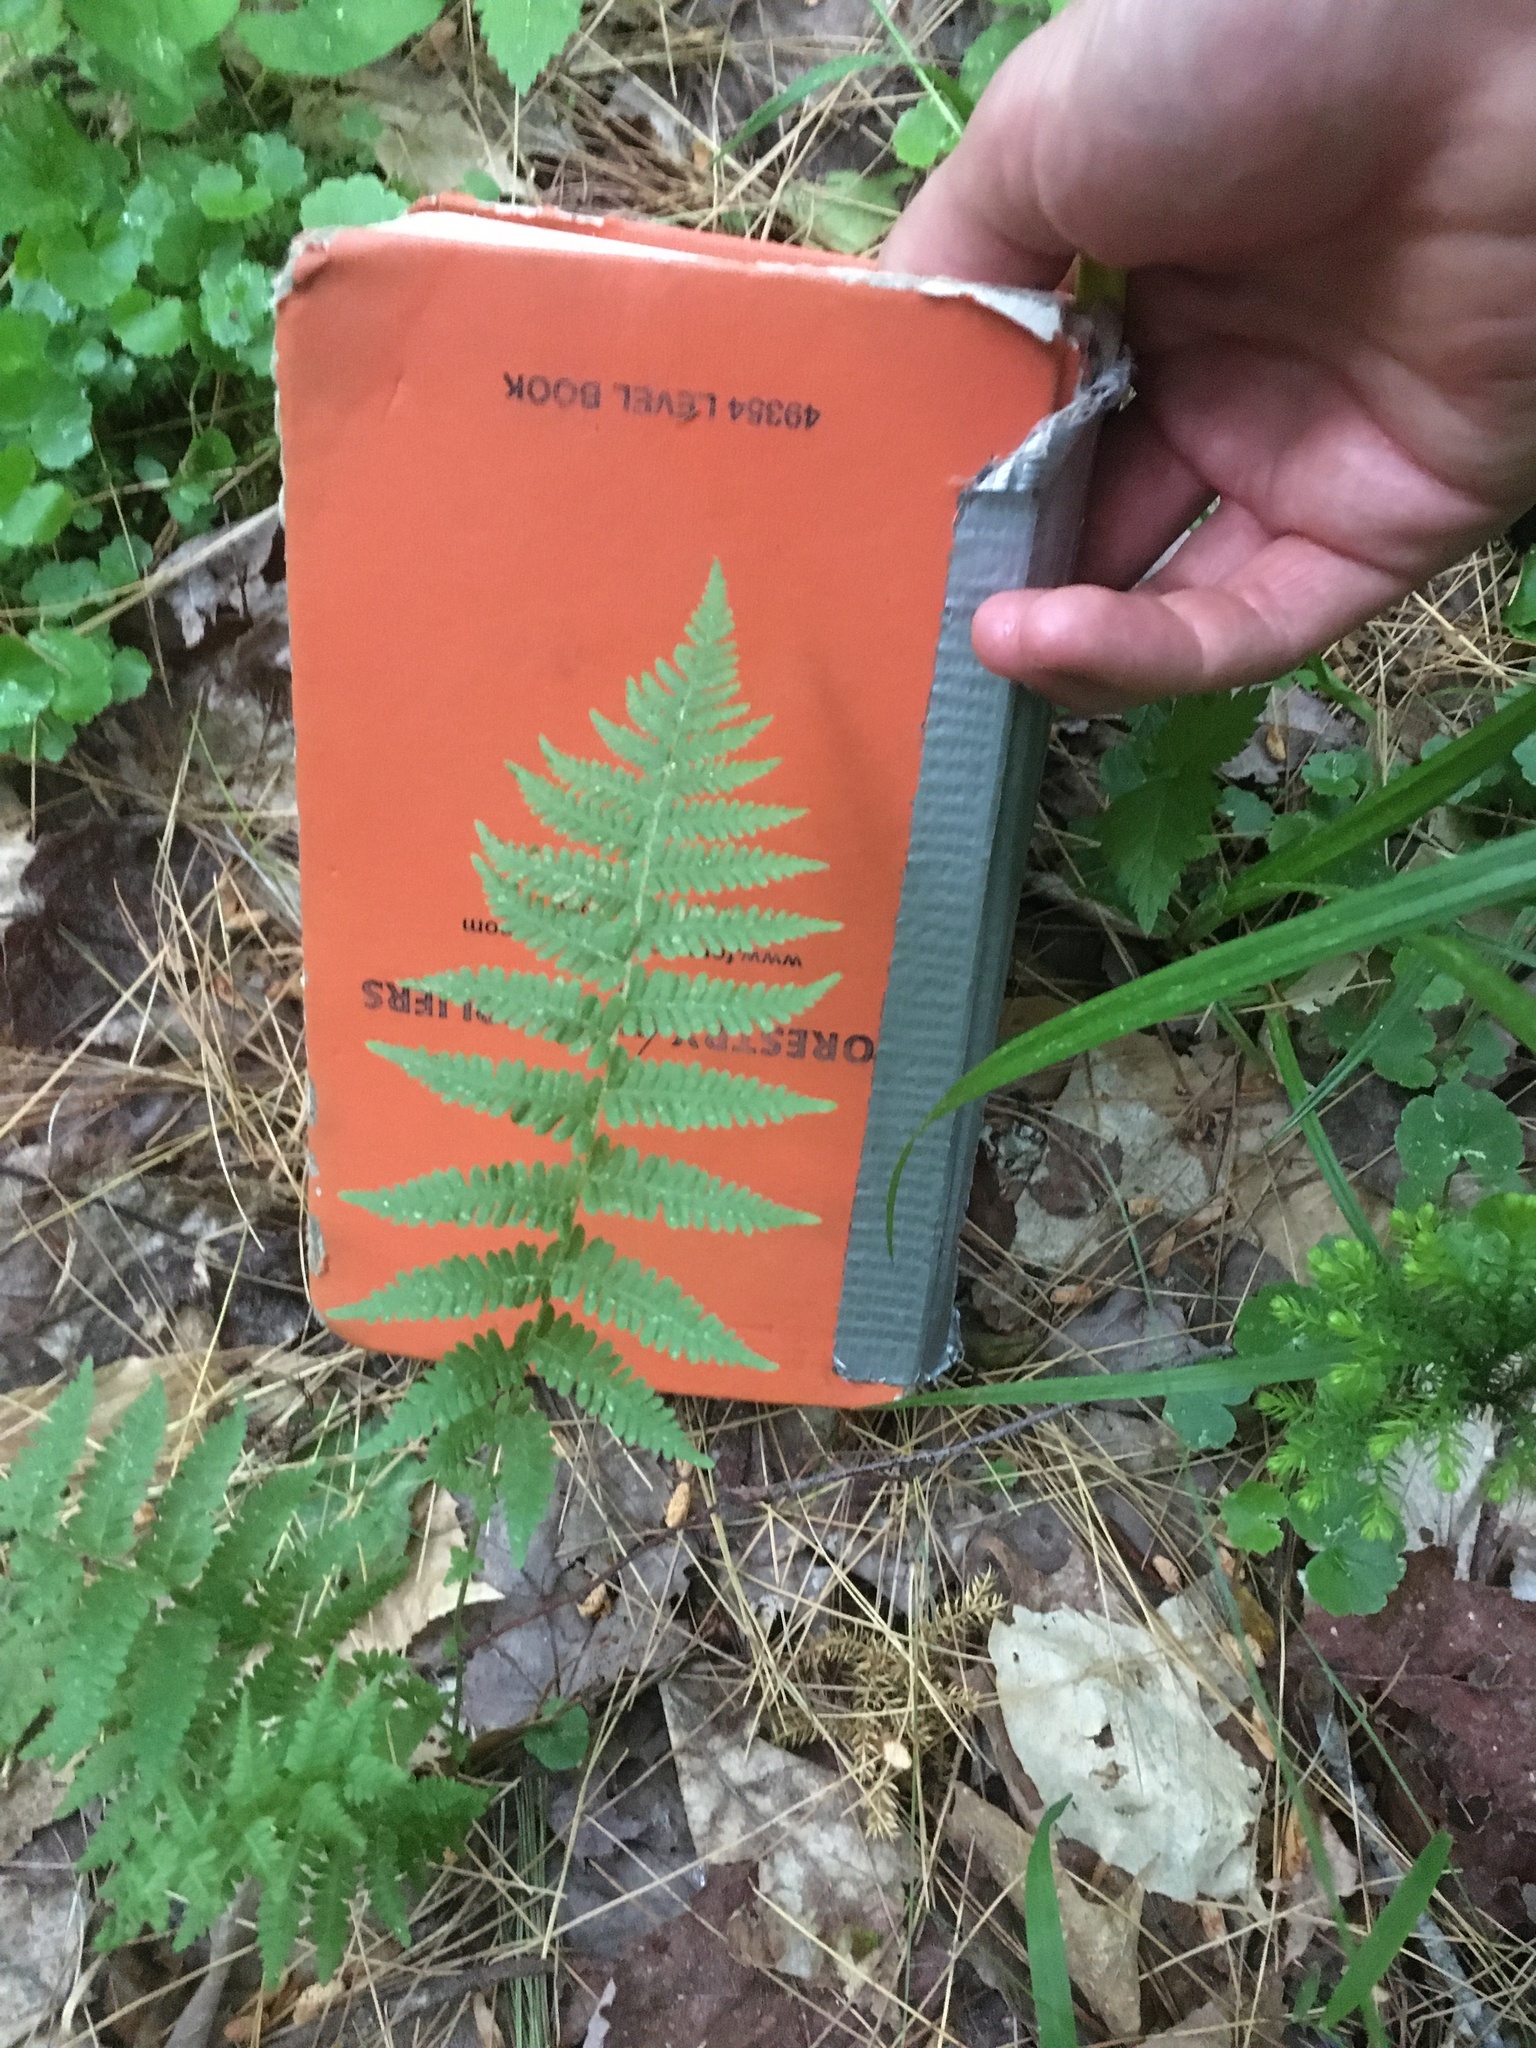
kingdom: Plantae
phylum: Tracheophyta
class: Polypodiopsida
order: Polypodiales
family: Thelypteridaceae
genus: Amauropelta
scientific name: Amauropelta noveboracensis
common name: New york fern
